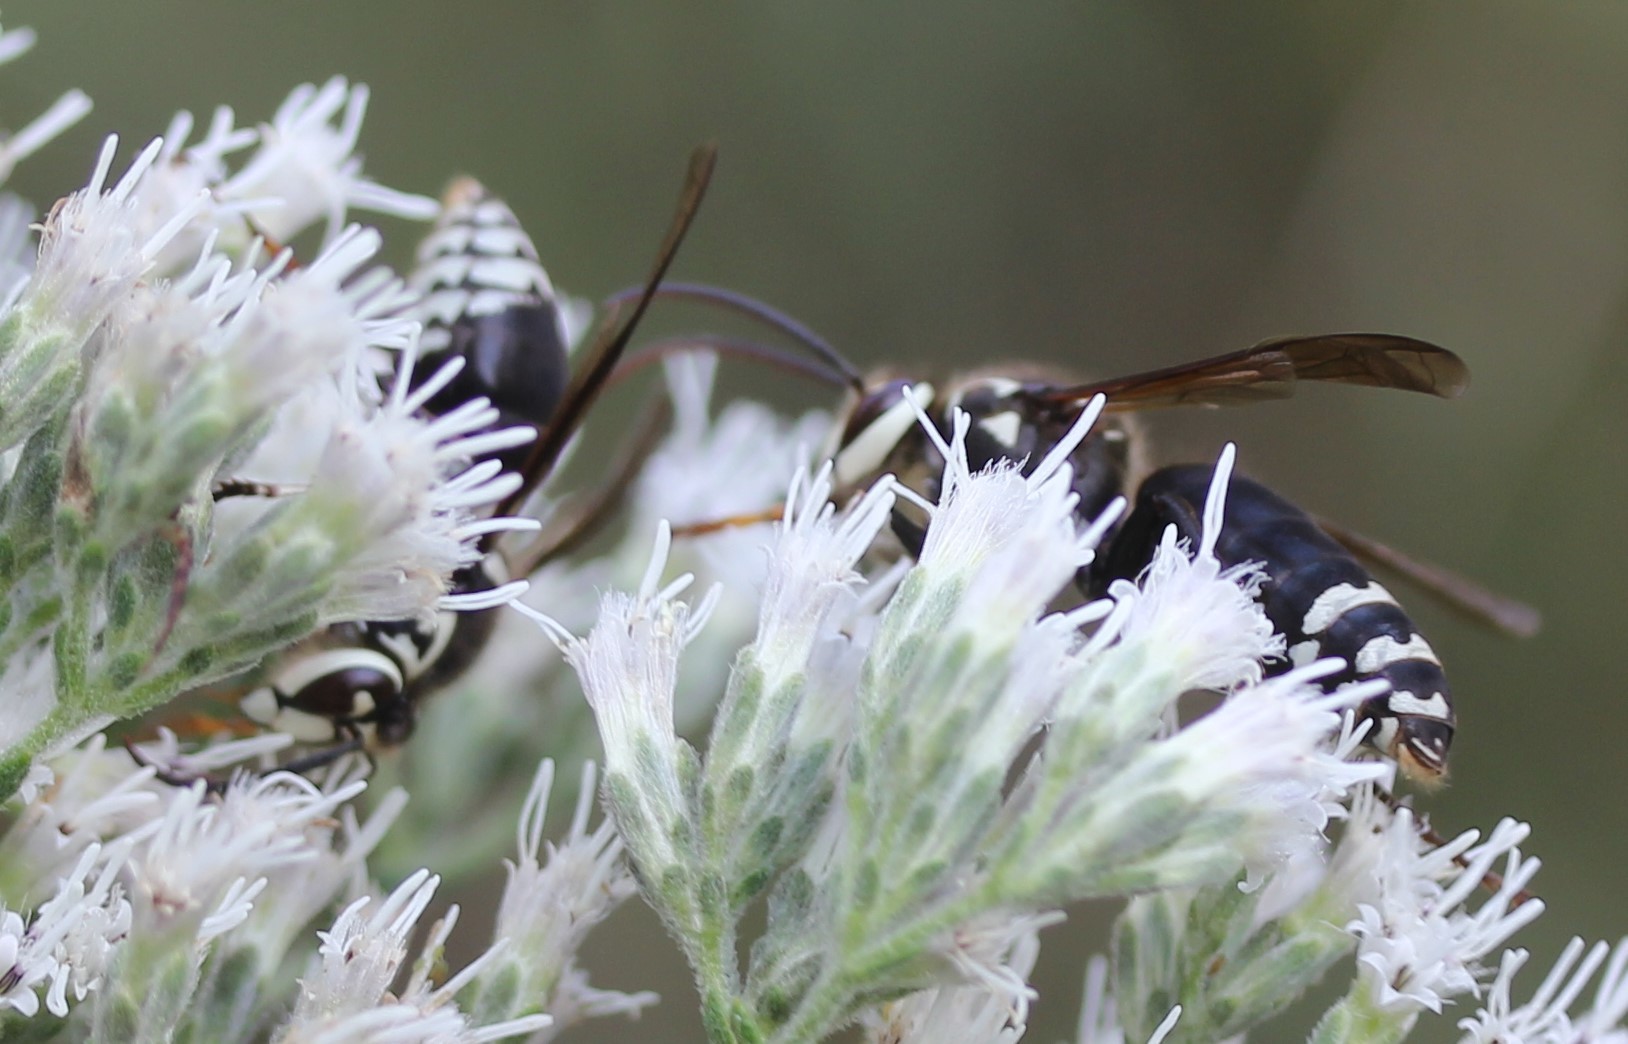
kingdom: Animalia
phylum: Arthropoda
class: Insecta
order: Hymenoptera
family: Vespidae
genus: Dolichovespula
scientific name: Dolichovespula maculata
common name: Bald-faced hornet
